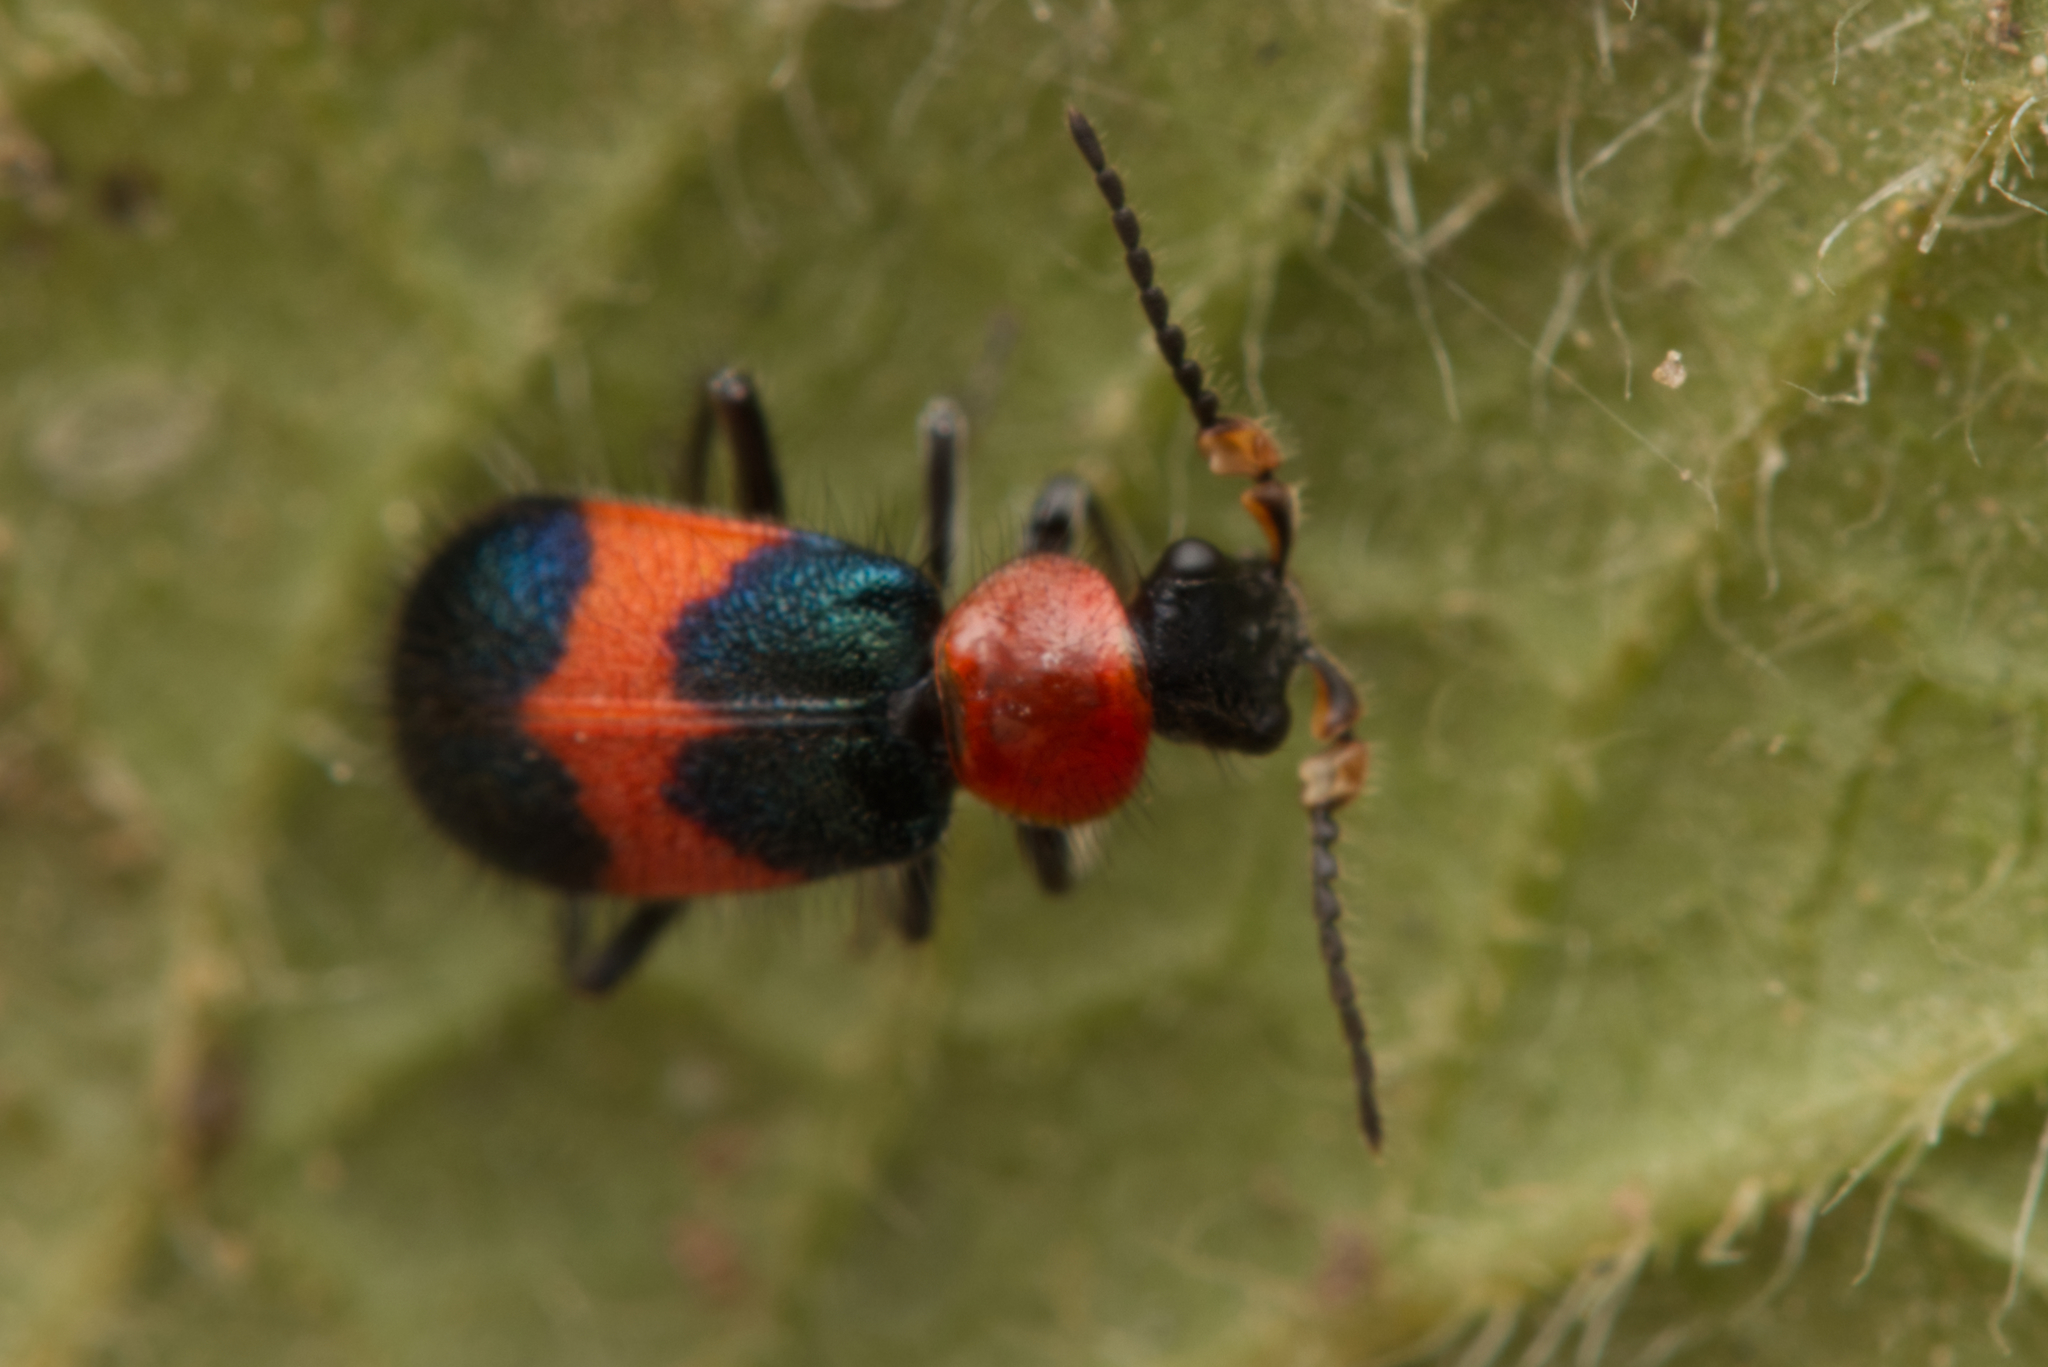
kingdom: Animalia
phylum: Arthropoda
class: Insecta
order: Coleoptera
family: Melyridae
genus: Dicranolaius
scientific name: Dicranolaius
